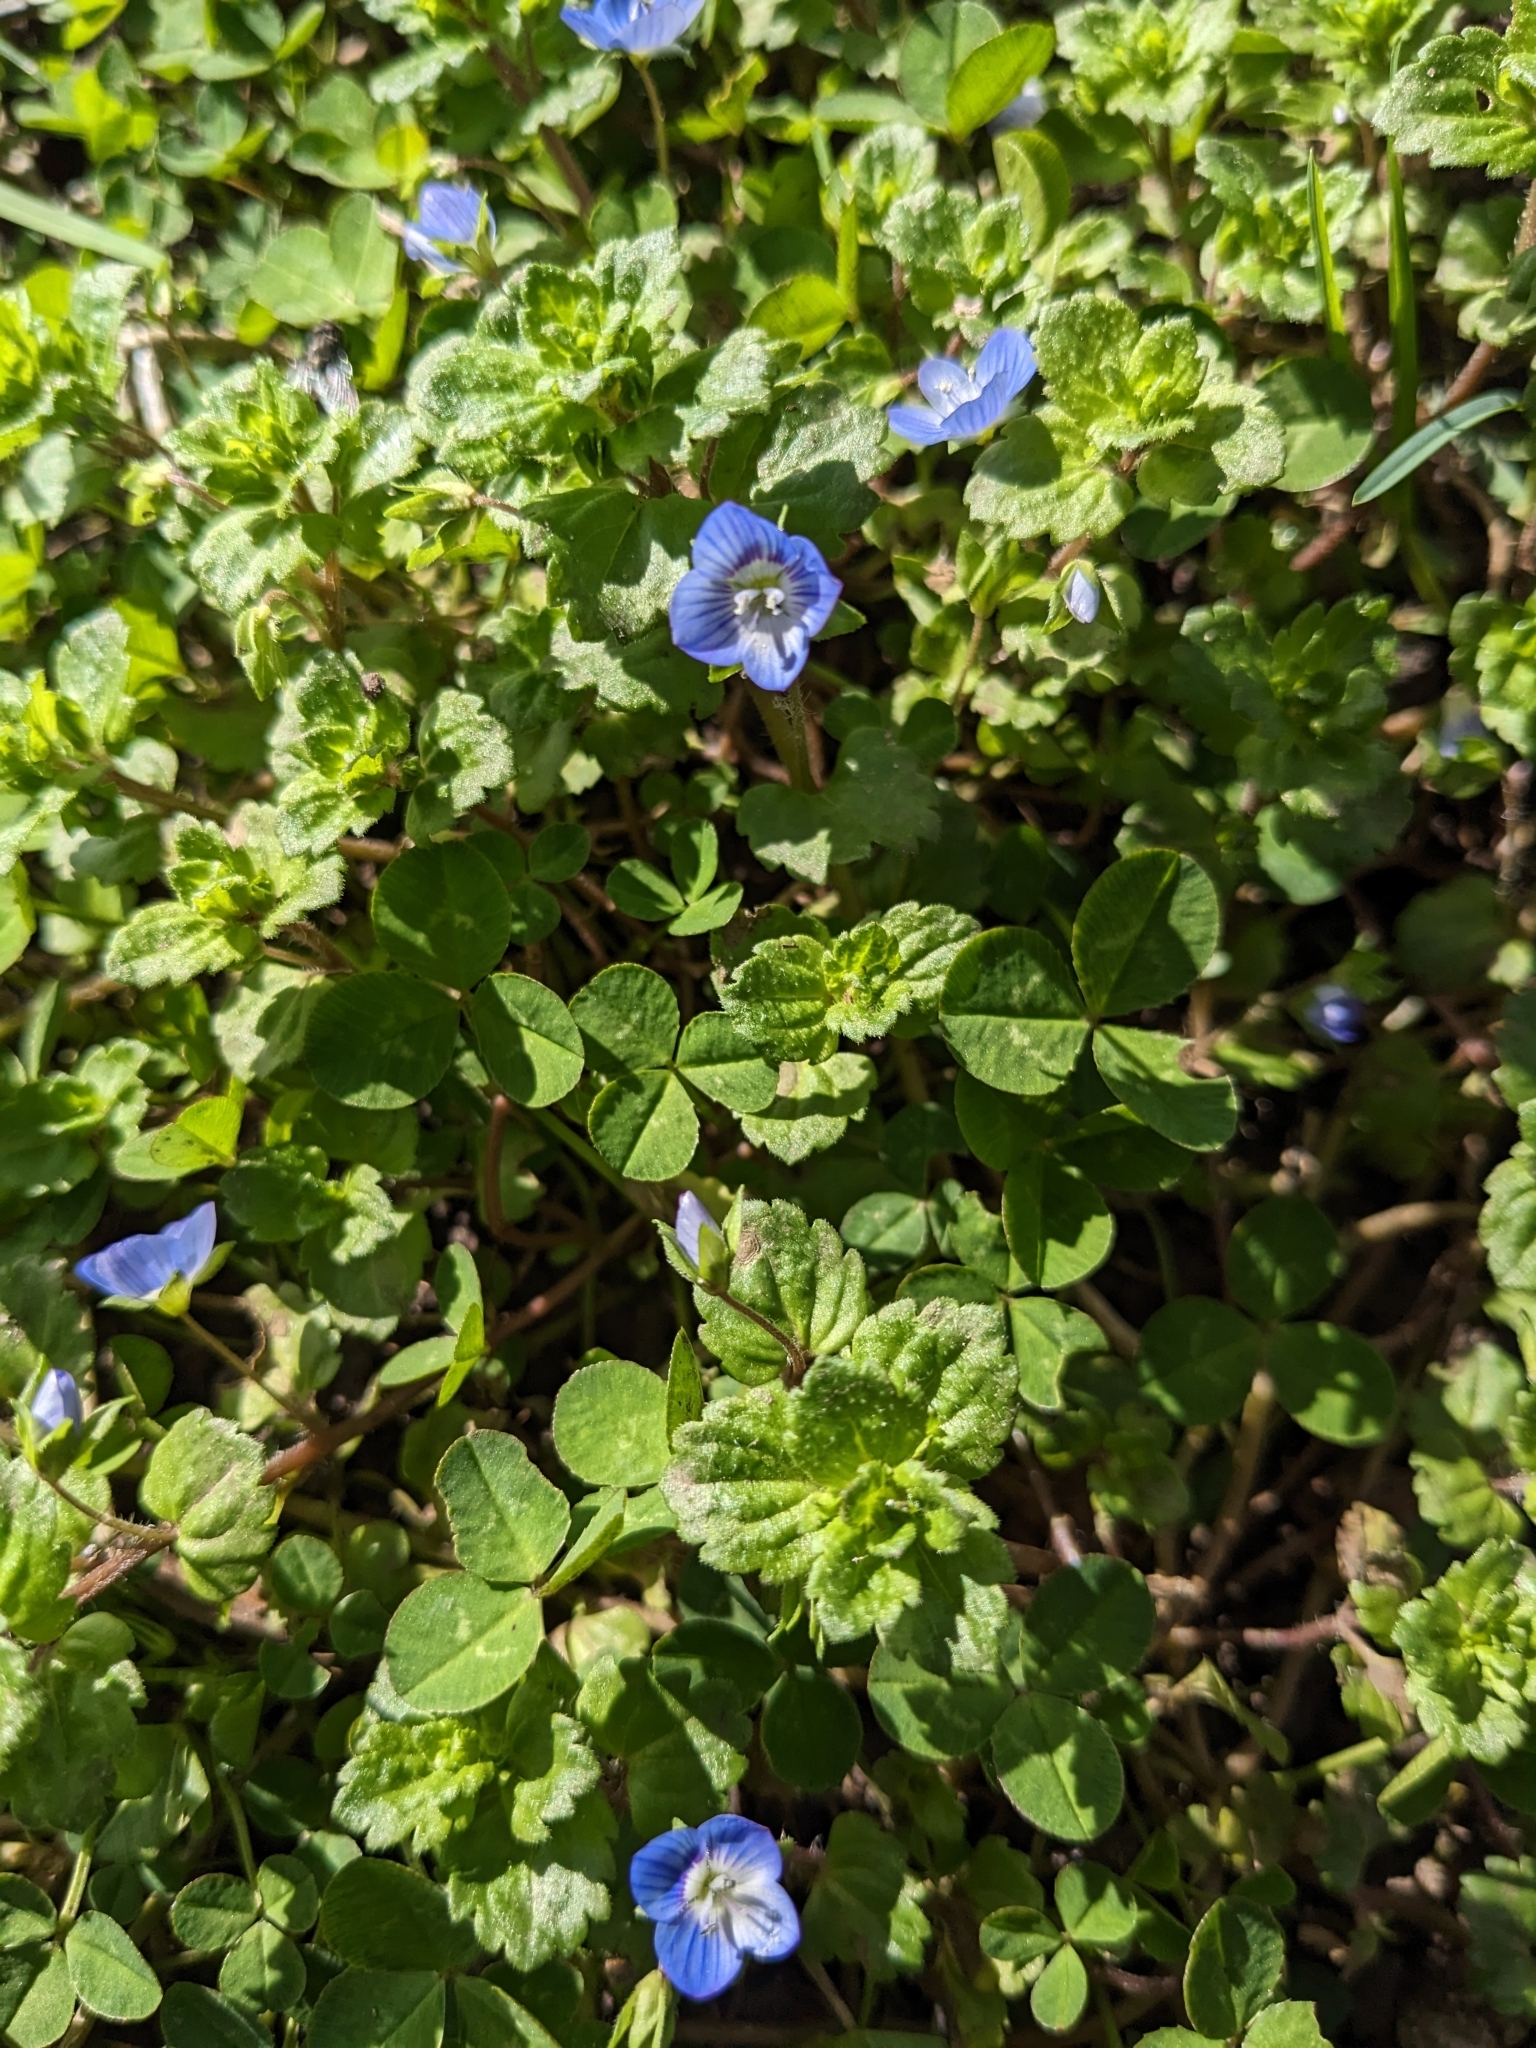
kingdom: Plantae
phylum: Tracheophyta
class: Magnoliopsida
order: Lamiales
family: Plantaginaceae
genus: Veronica
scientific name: Veronica persica
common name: Common field-speedwell
